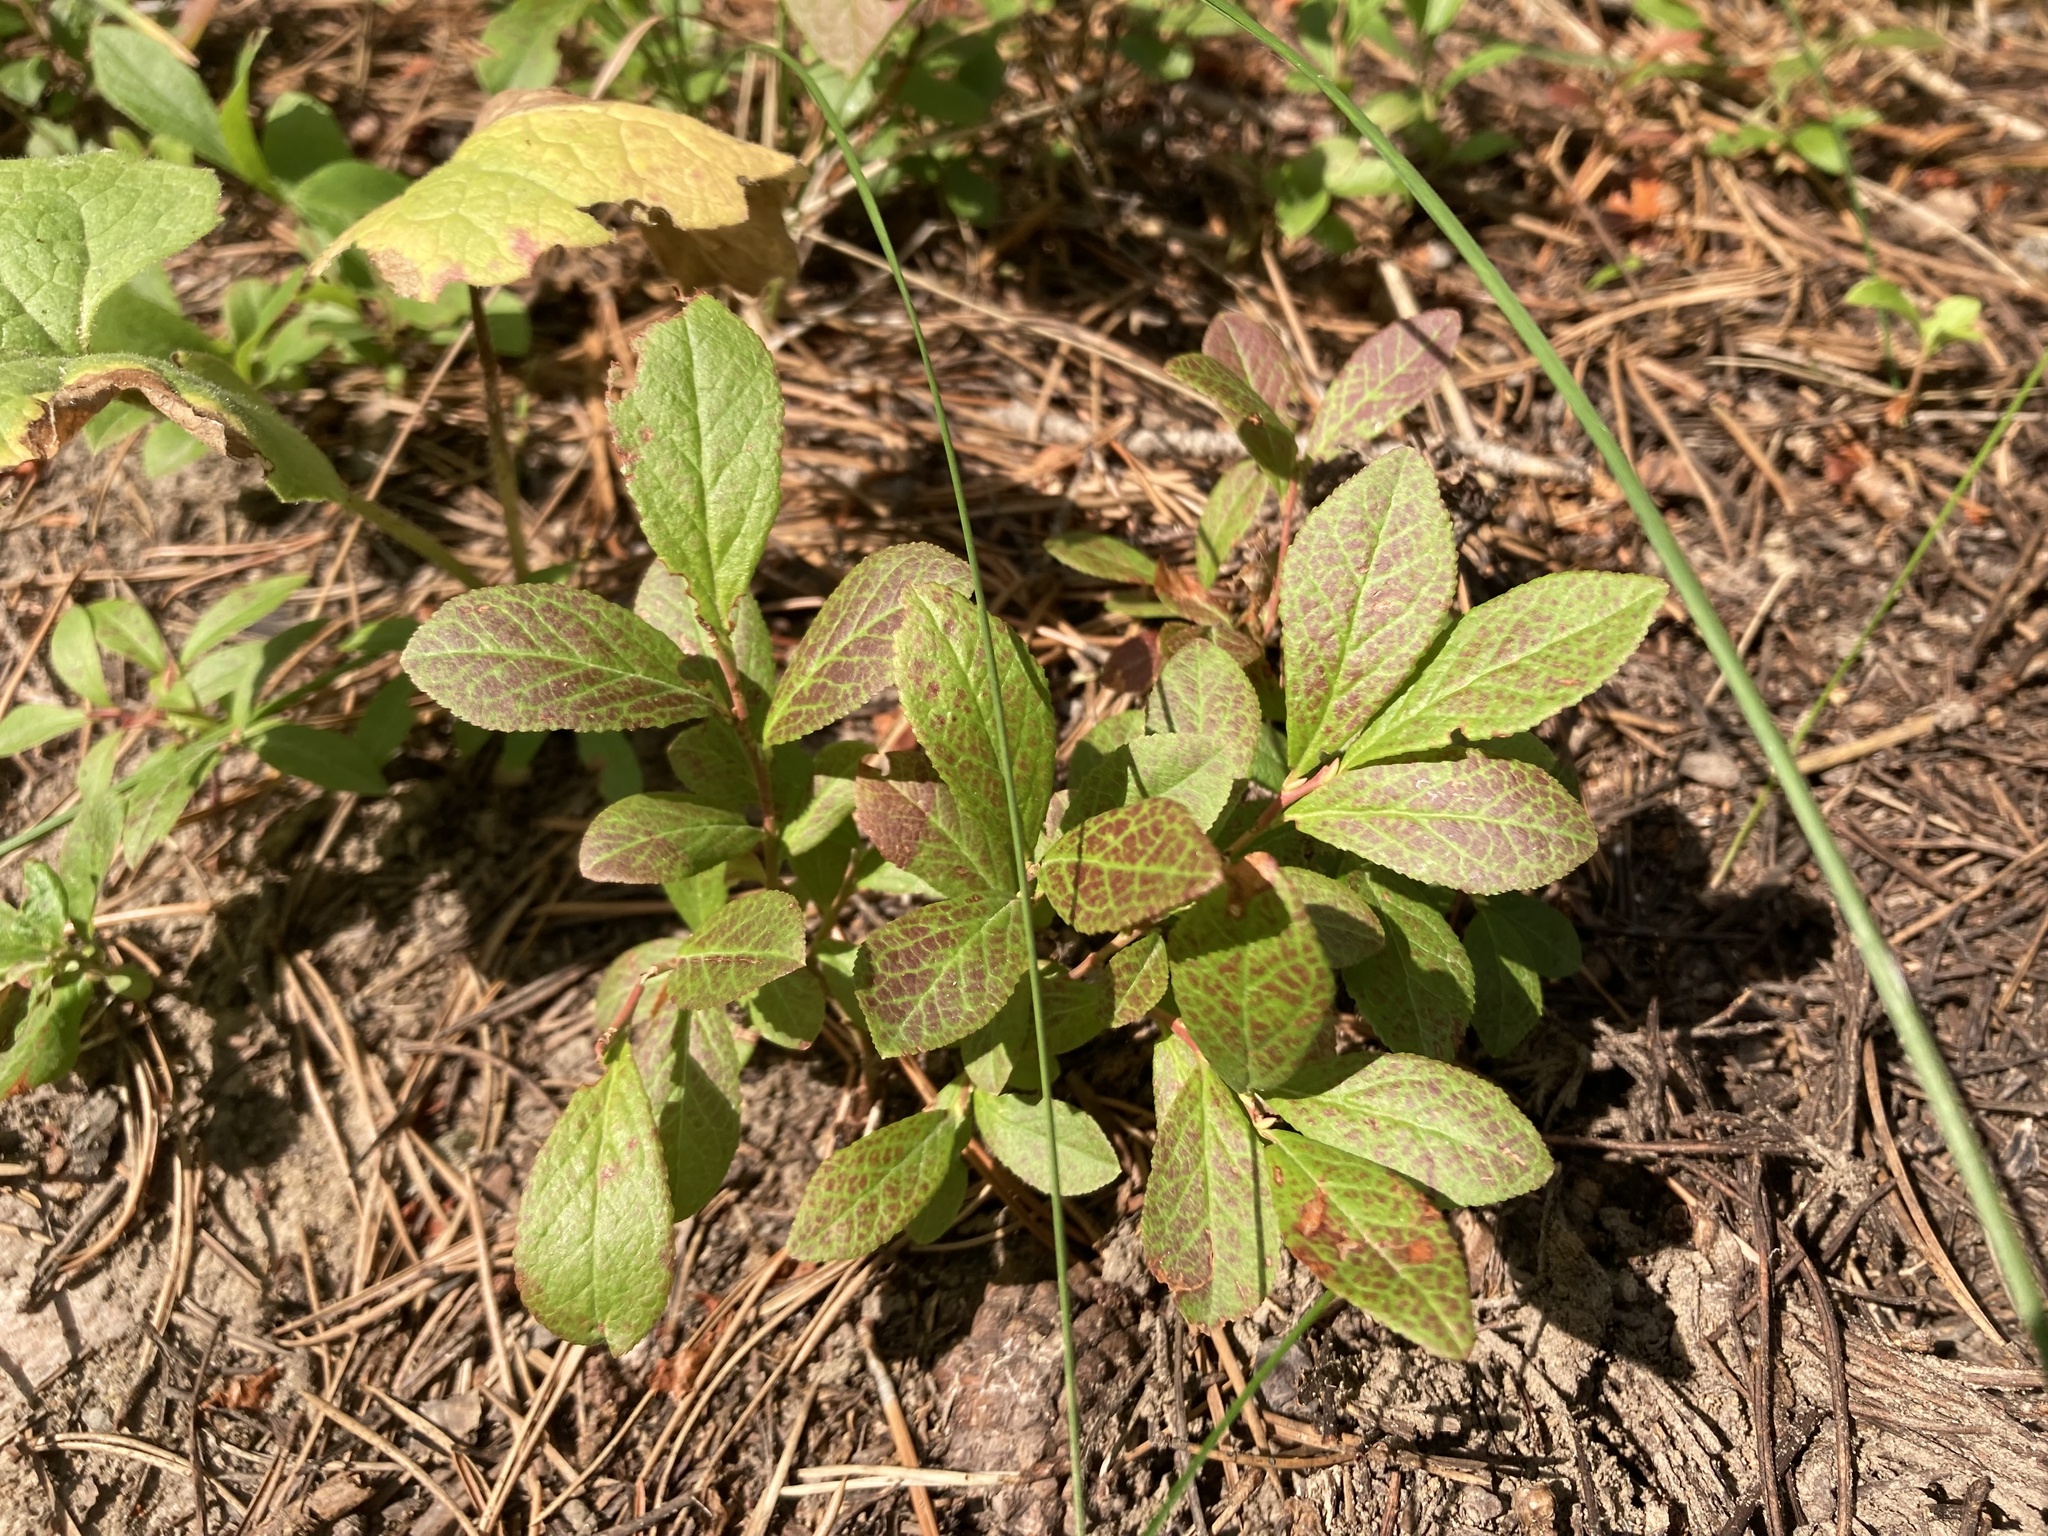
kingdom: Plantae
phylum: Tracheophyta
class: Magnoliopsida
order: Ericales
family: Ericaceae
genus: Vaccinium
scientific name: Vaccinium cespitosum
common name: Dwarf bilberry
